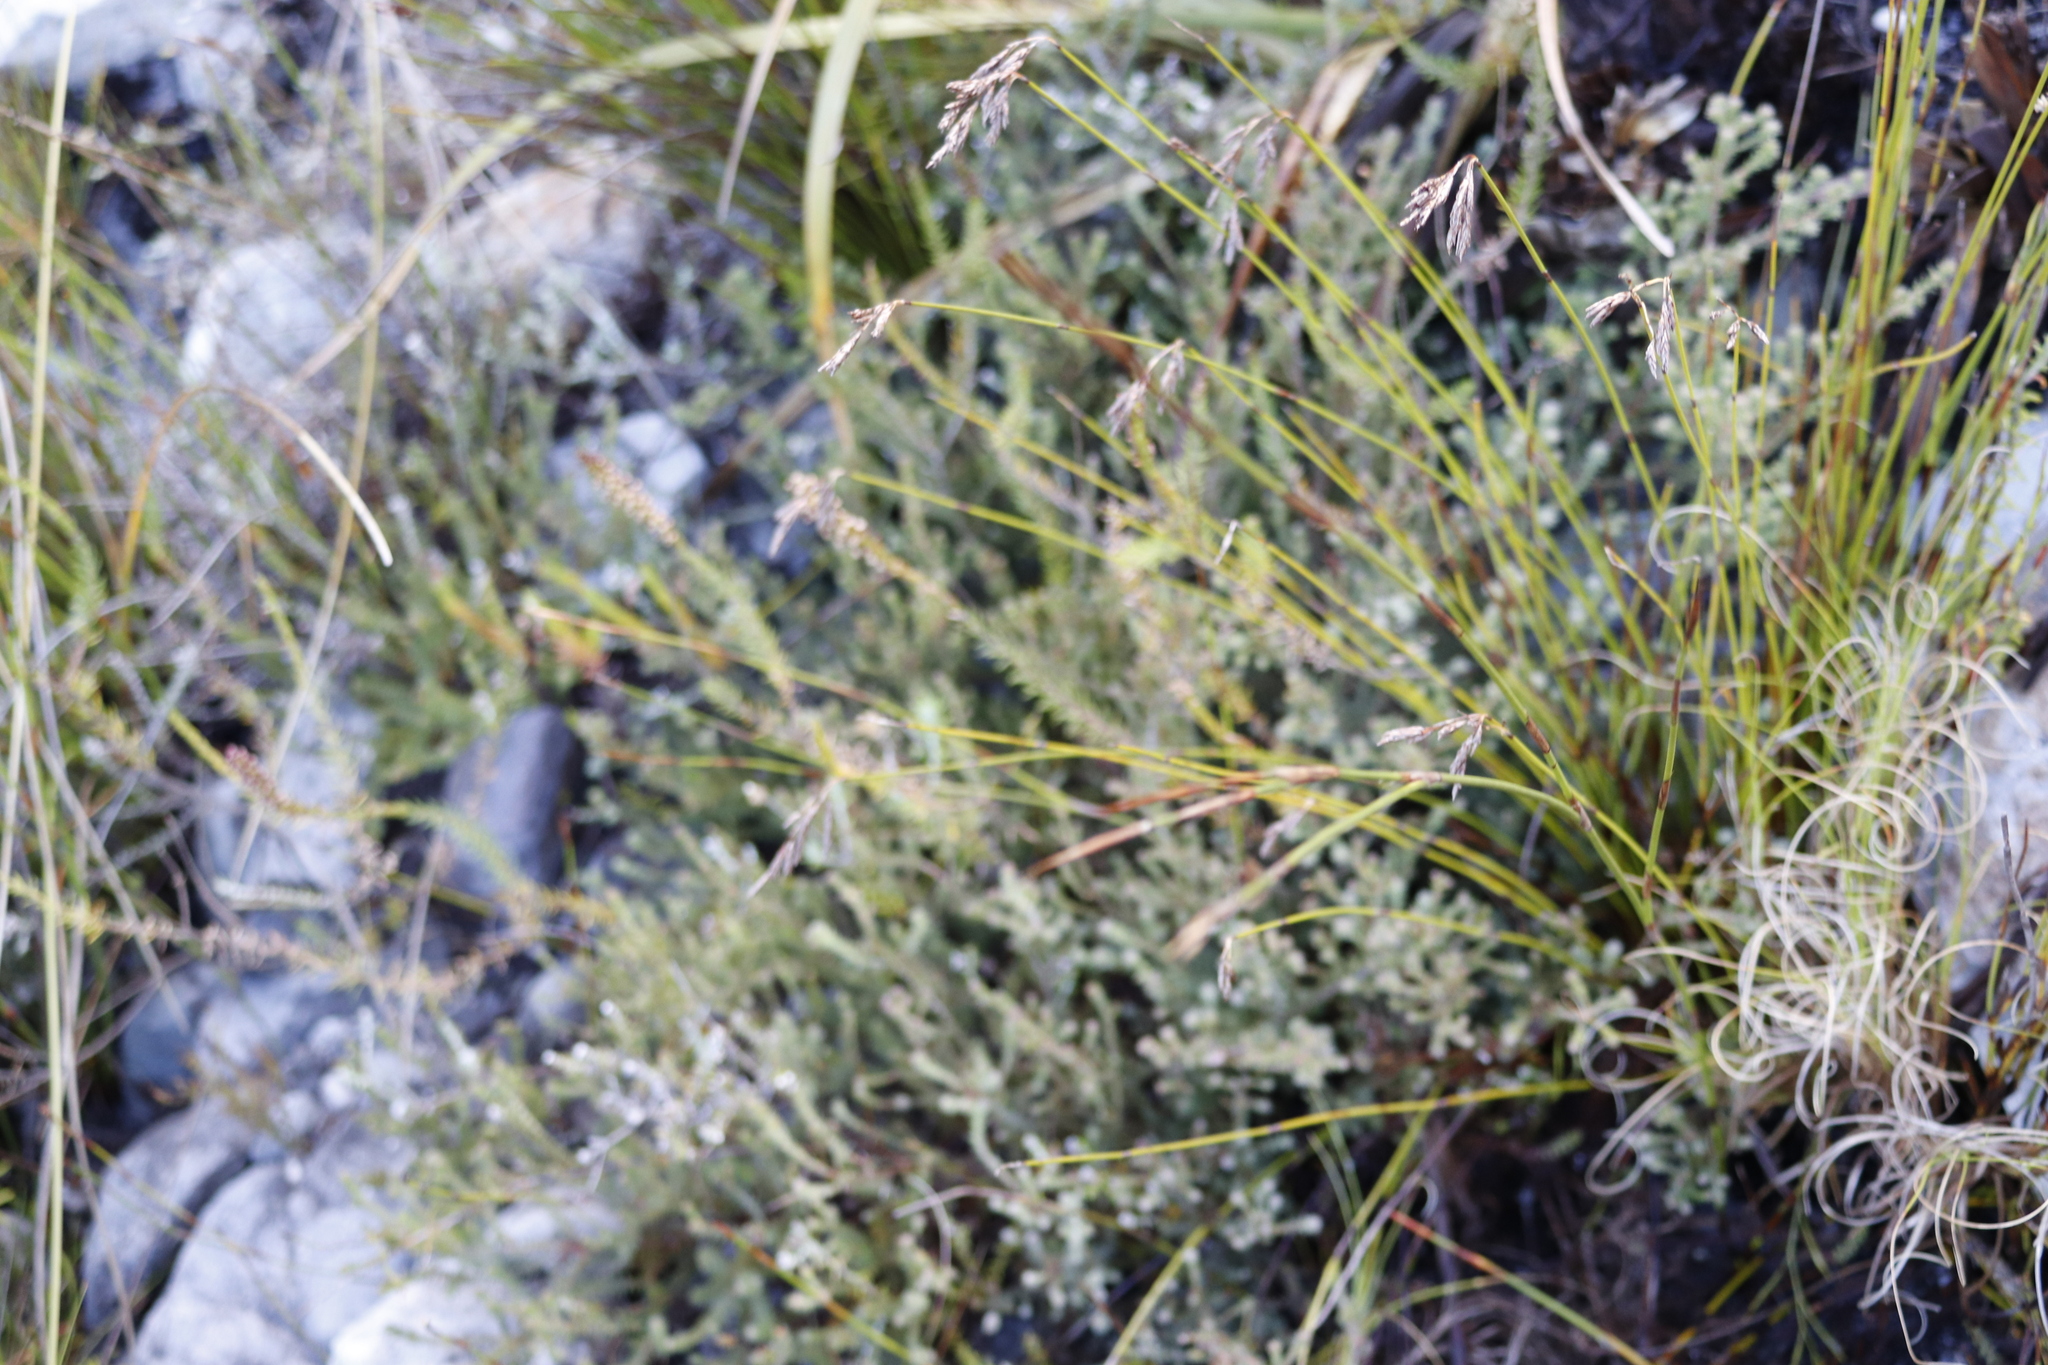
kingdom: Plantae
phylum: Tracheophyta
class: Magnoliopsida
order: Lamiales
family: Scrophulariaceae
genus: Microdon
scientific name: Microdon dubius
